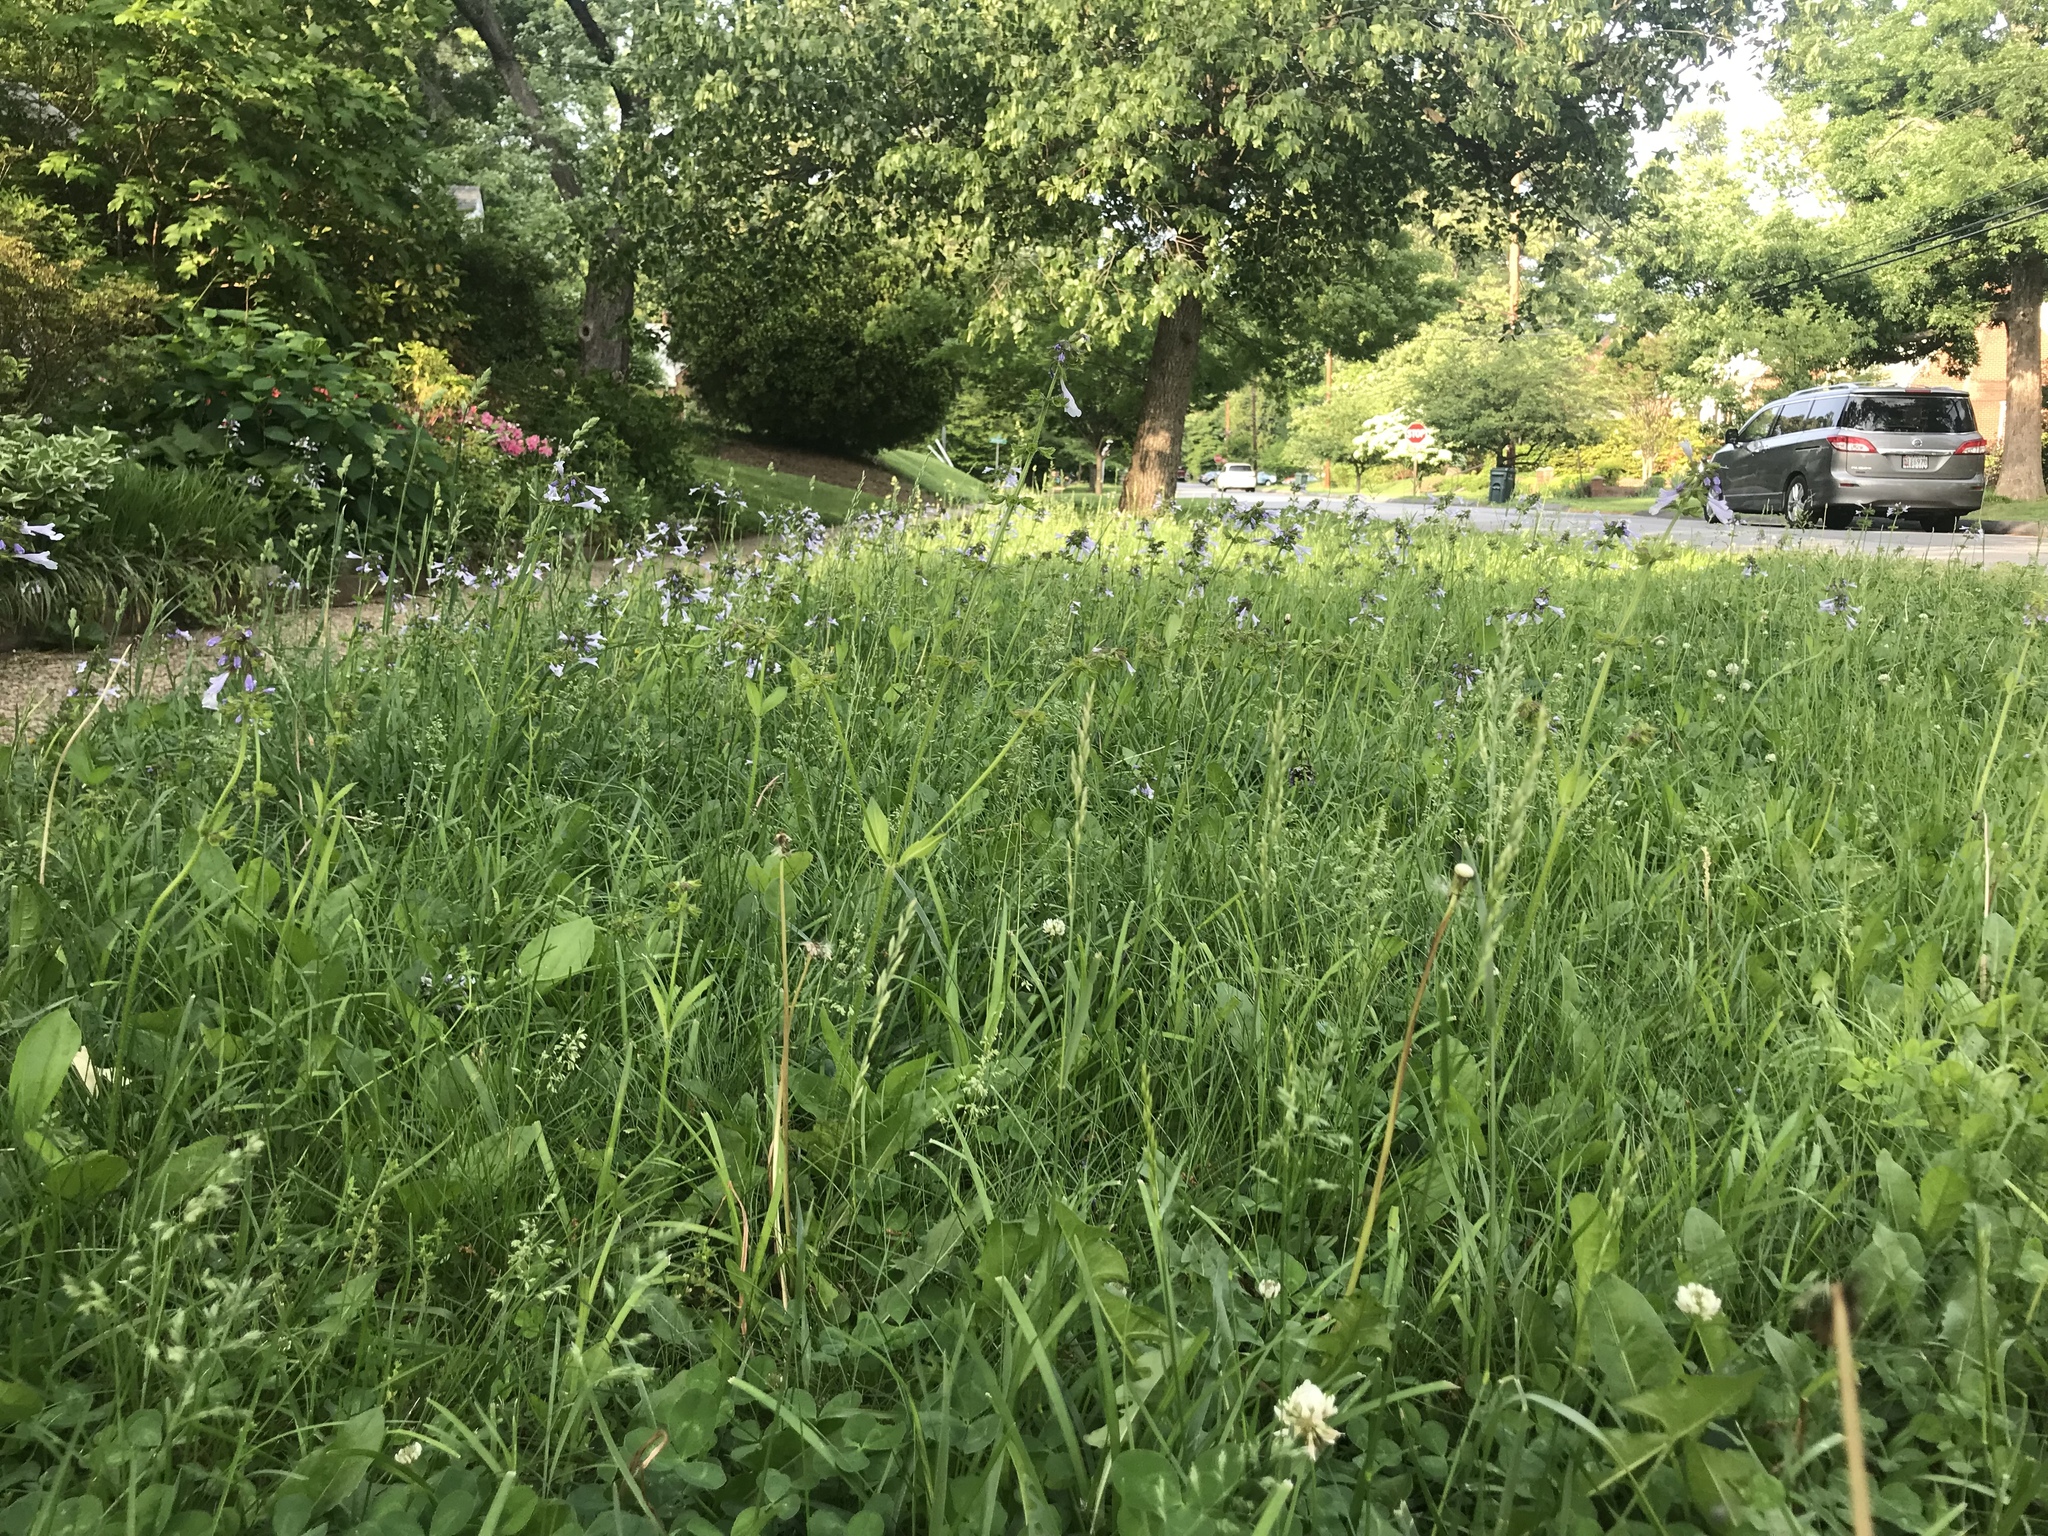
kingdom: Plantae
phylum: Tracheophyta
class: Magnoliopsida
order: Lamiales
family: Lamiaceae
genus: Salvia
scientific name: Salvia lyrata
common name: Cancerweed
